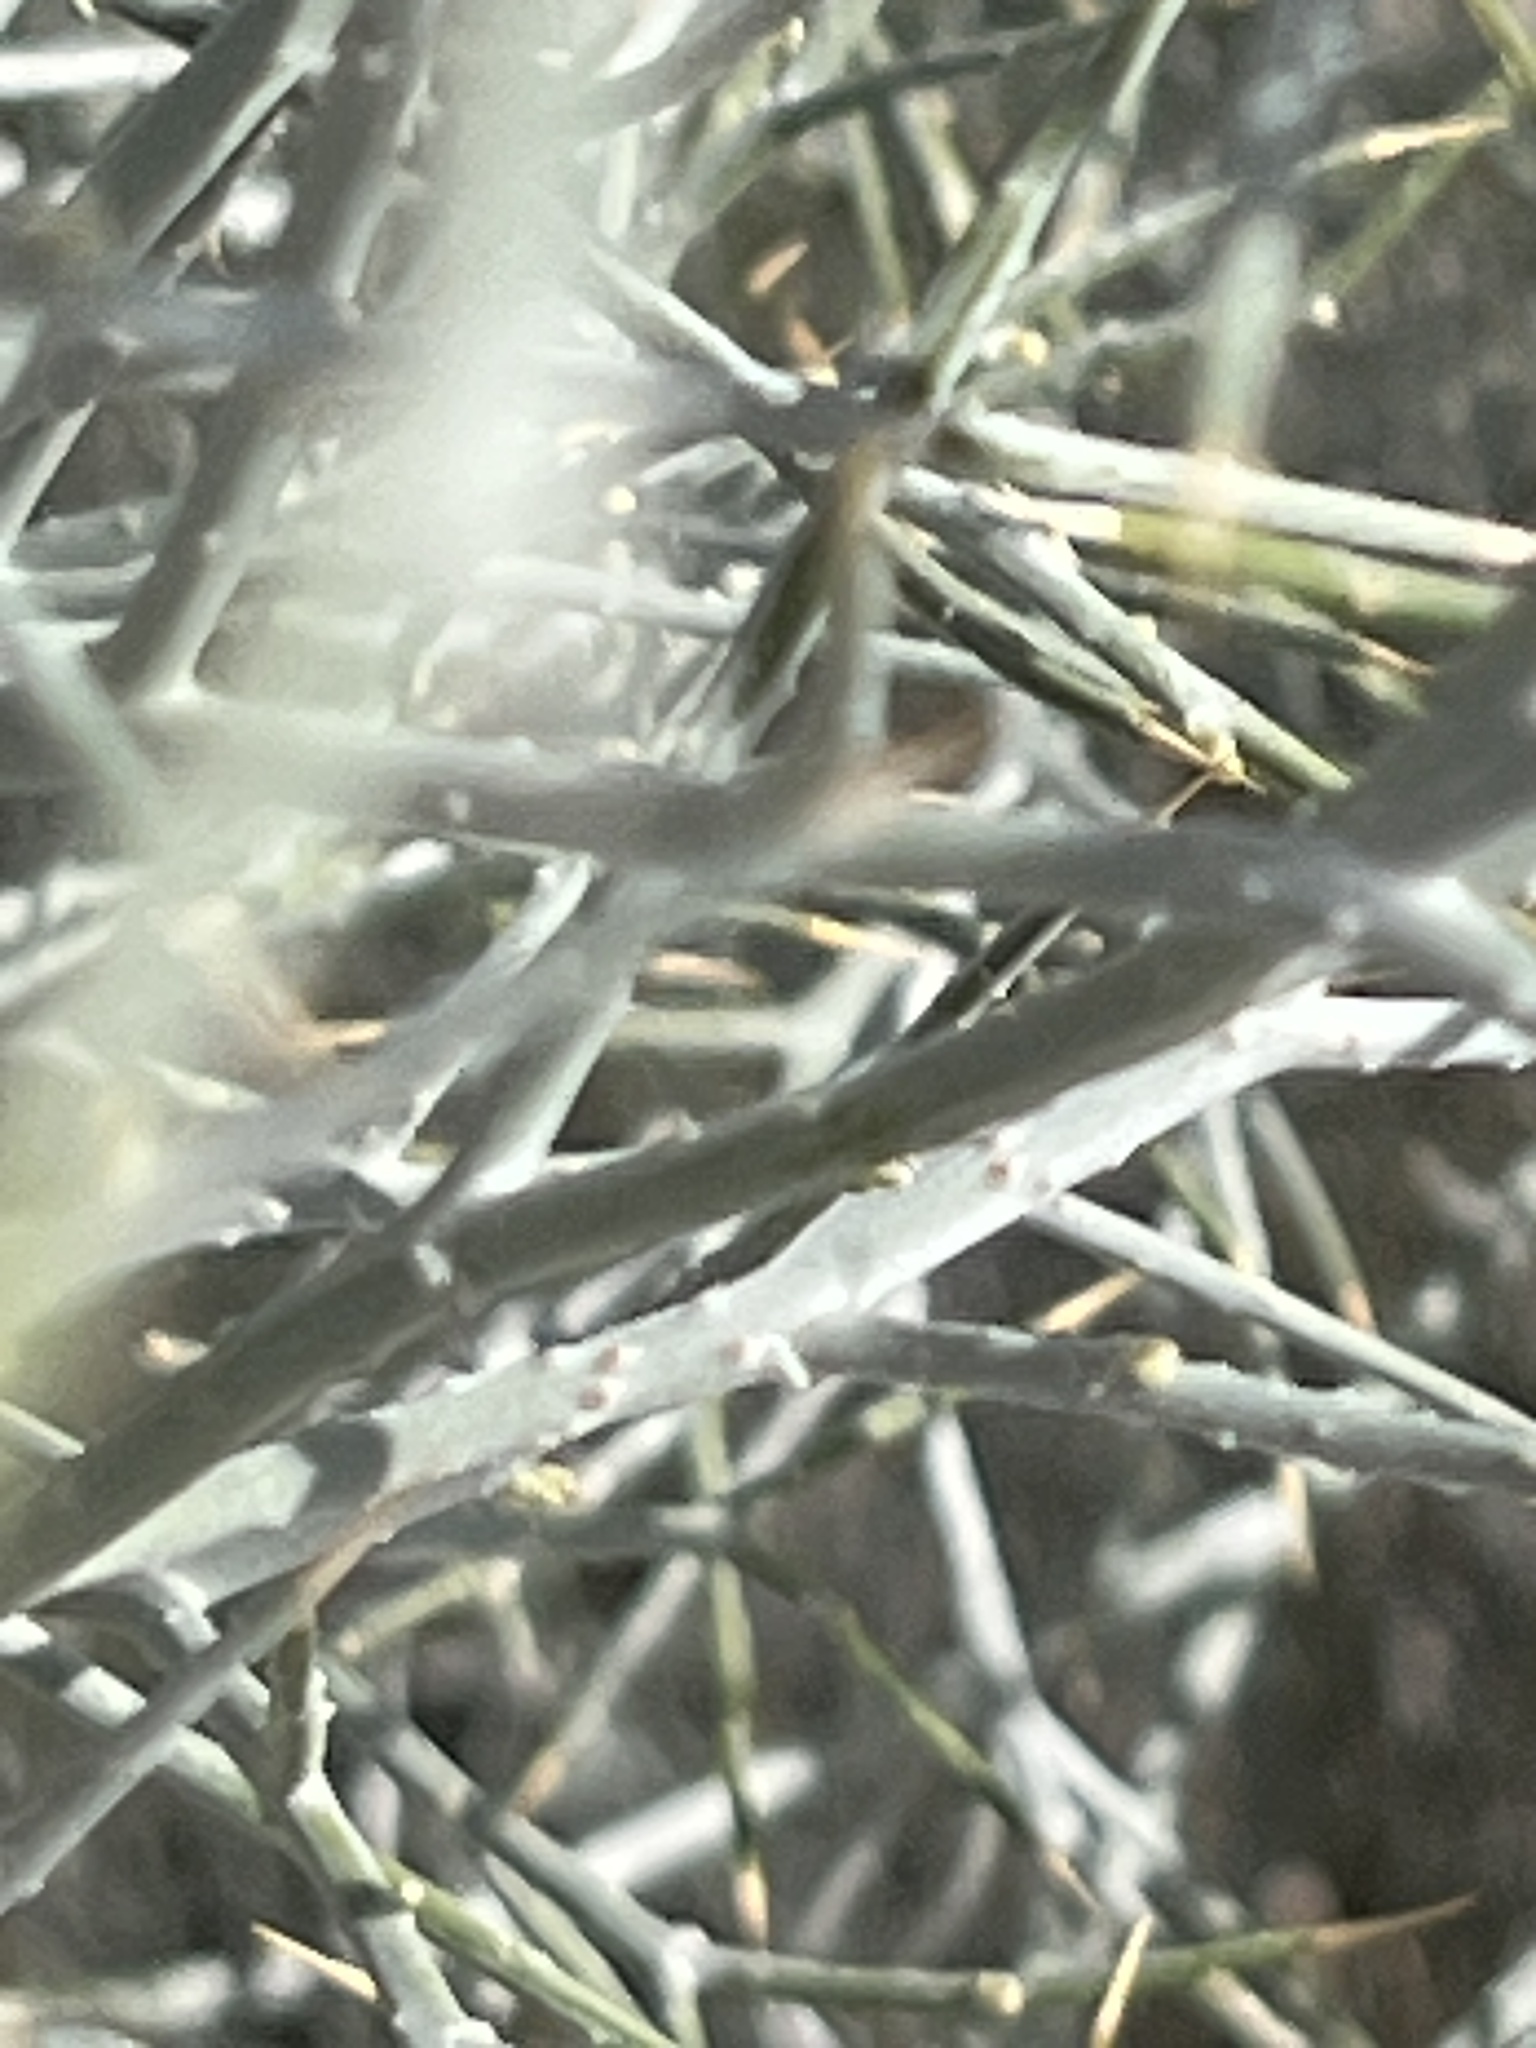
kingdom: Plantae
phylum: Tracheophyta
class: Magnoliopsida
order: Fabales
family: Fabaceae
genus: Psorothamnus
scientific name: Psorothamnus spinosus
